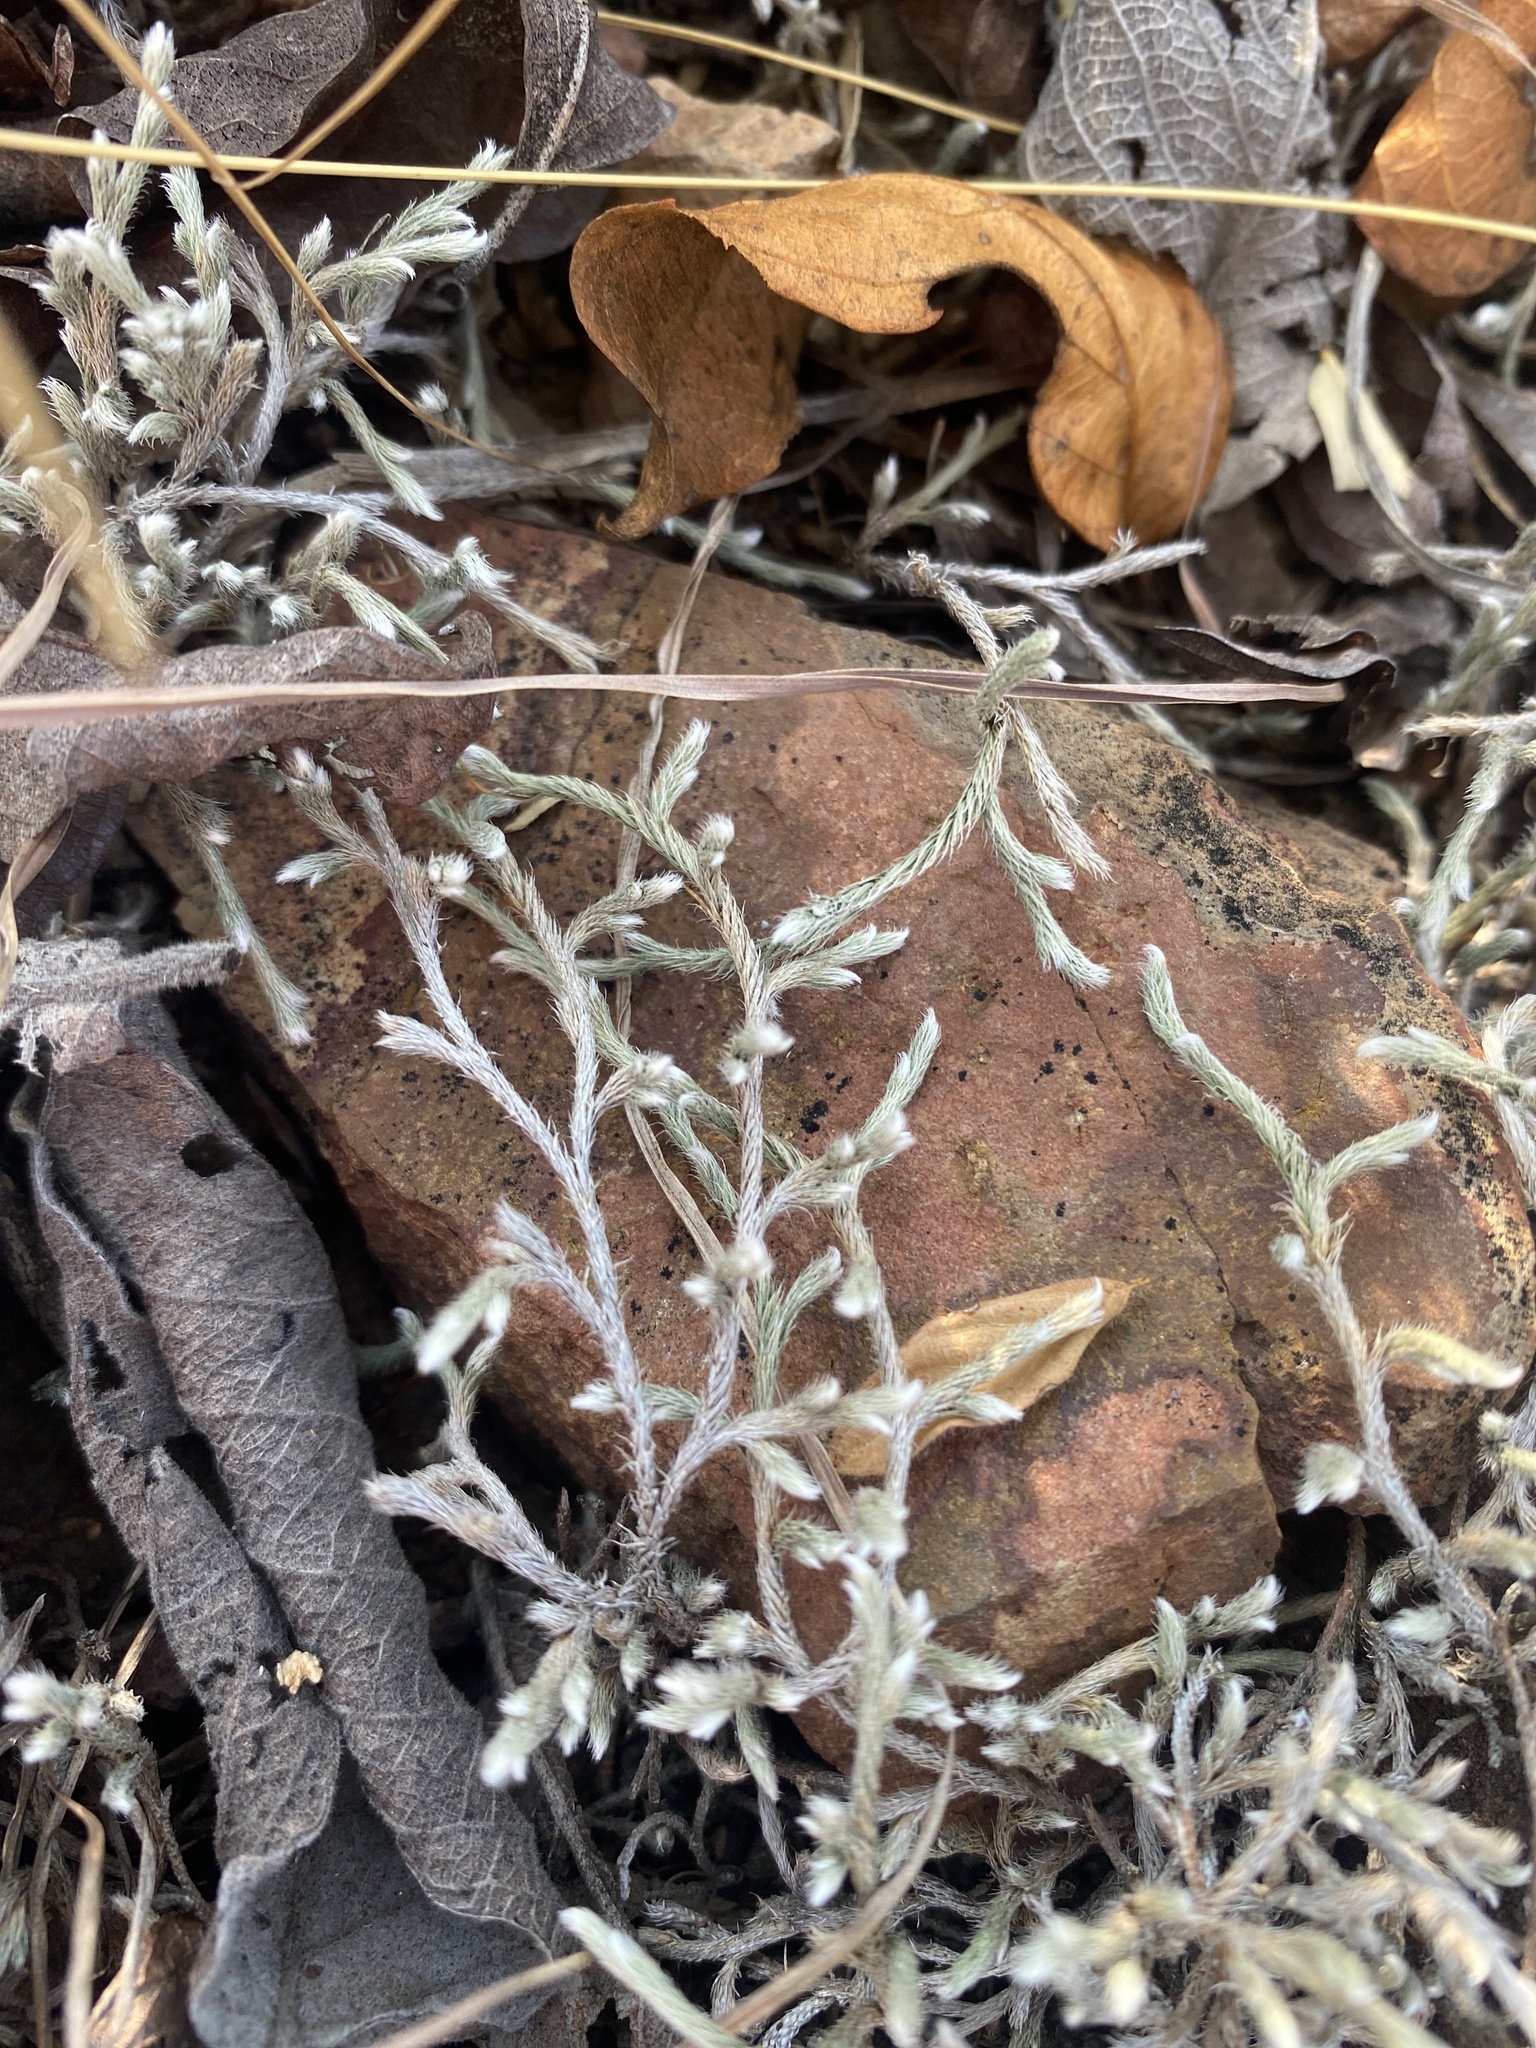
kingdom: Plantae
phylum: Tracheophyta
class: Lycopodiopsida
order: Selaginellales
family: Selaginellaceae
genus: Selaginella
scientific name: Selaginella dregei
